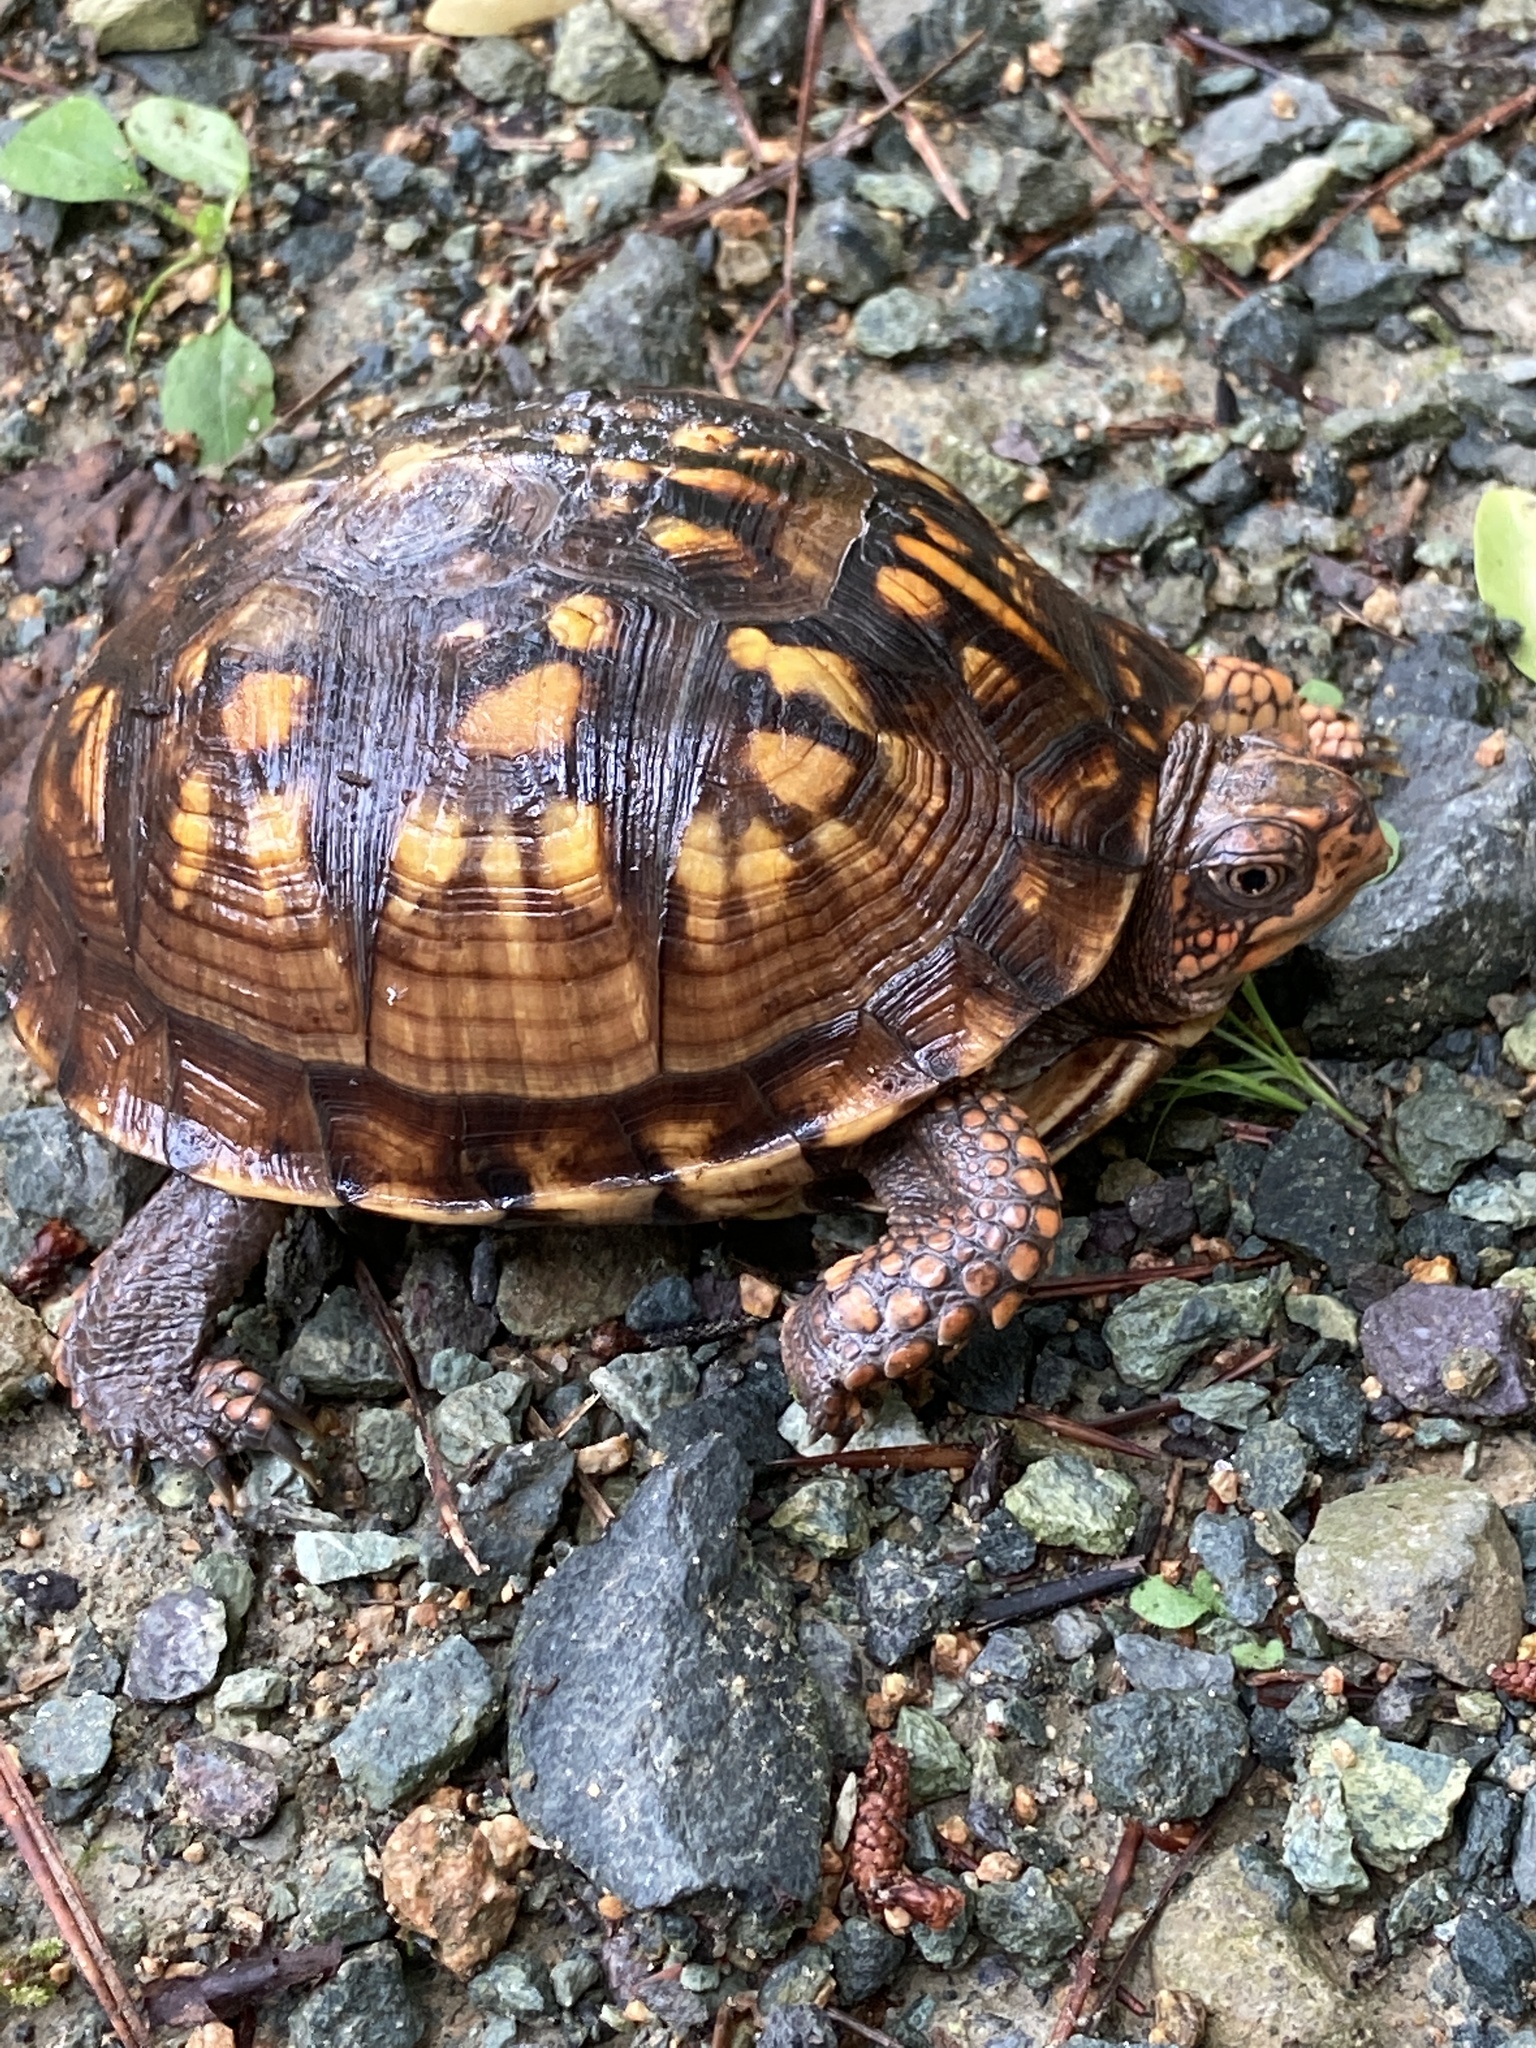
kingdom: Animalia
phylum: Chordata
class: Testudines
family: Emydidae
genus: Terrapene
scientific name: Terrapene carolina
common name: Common box turtle
